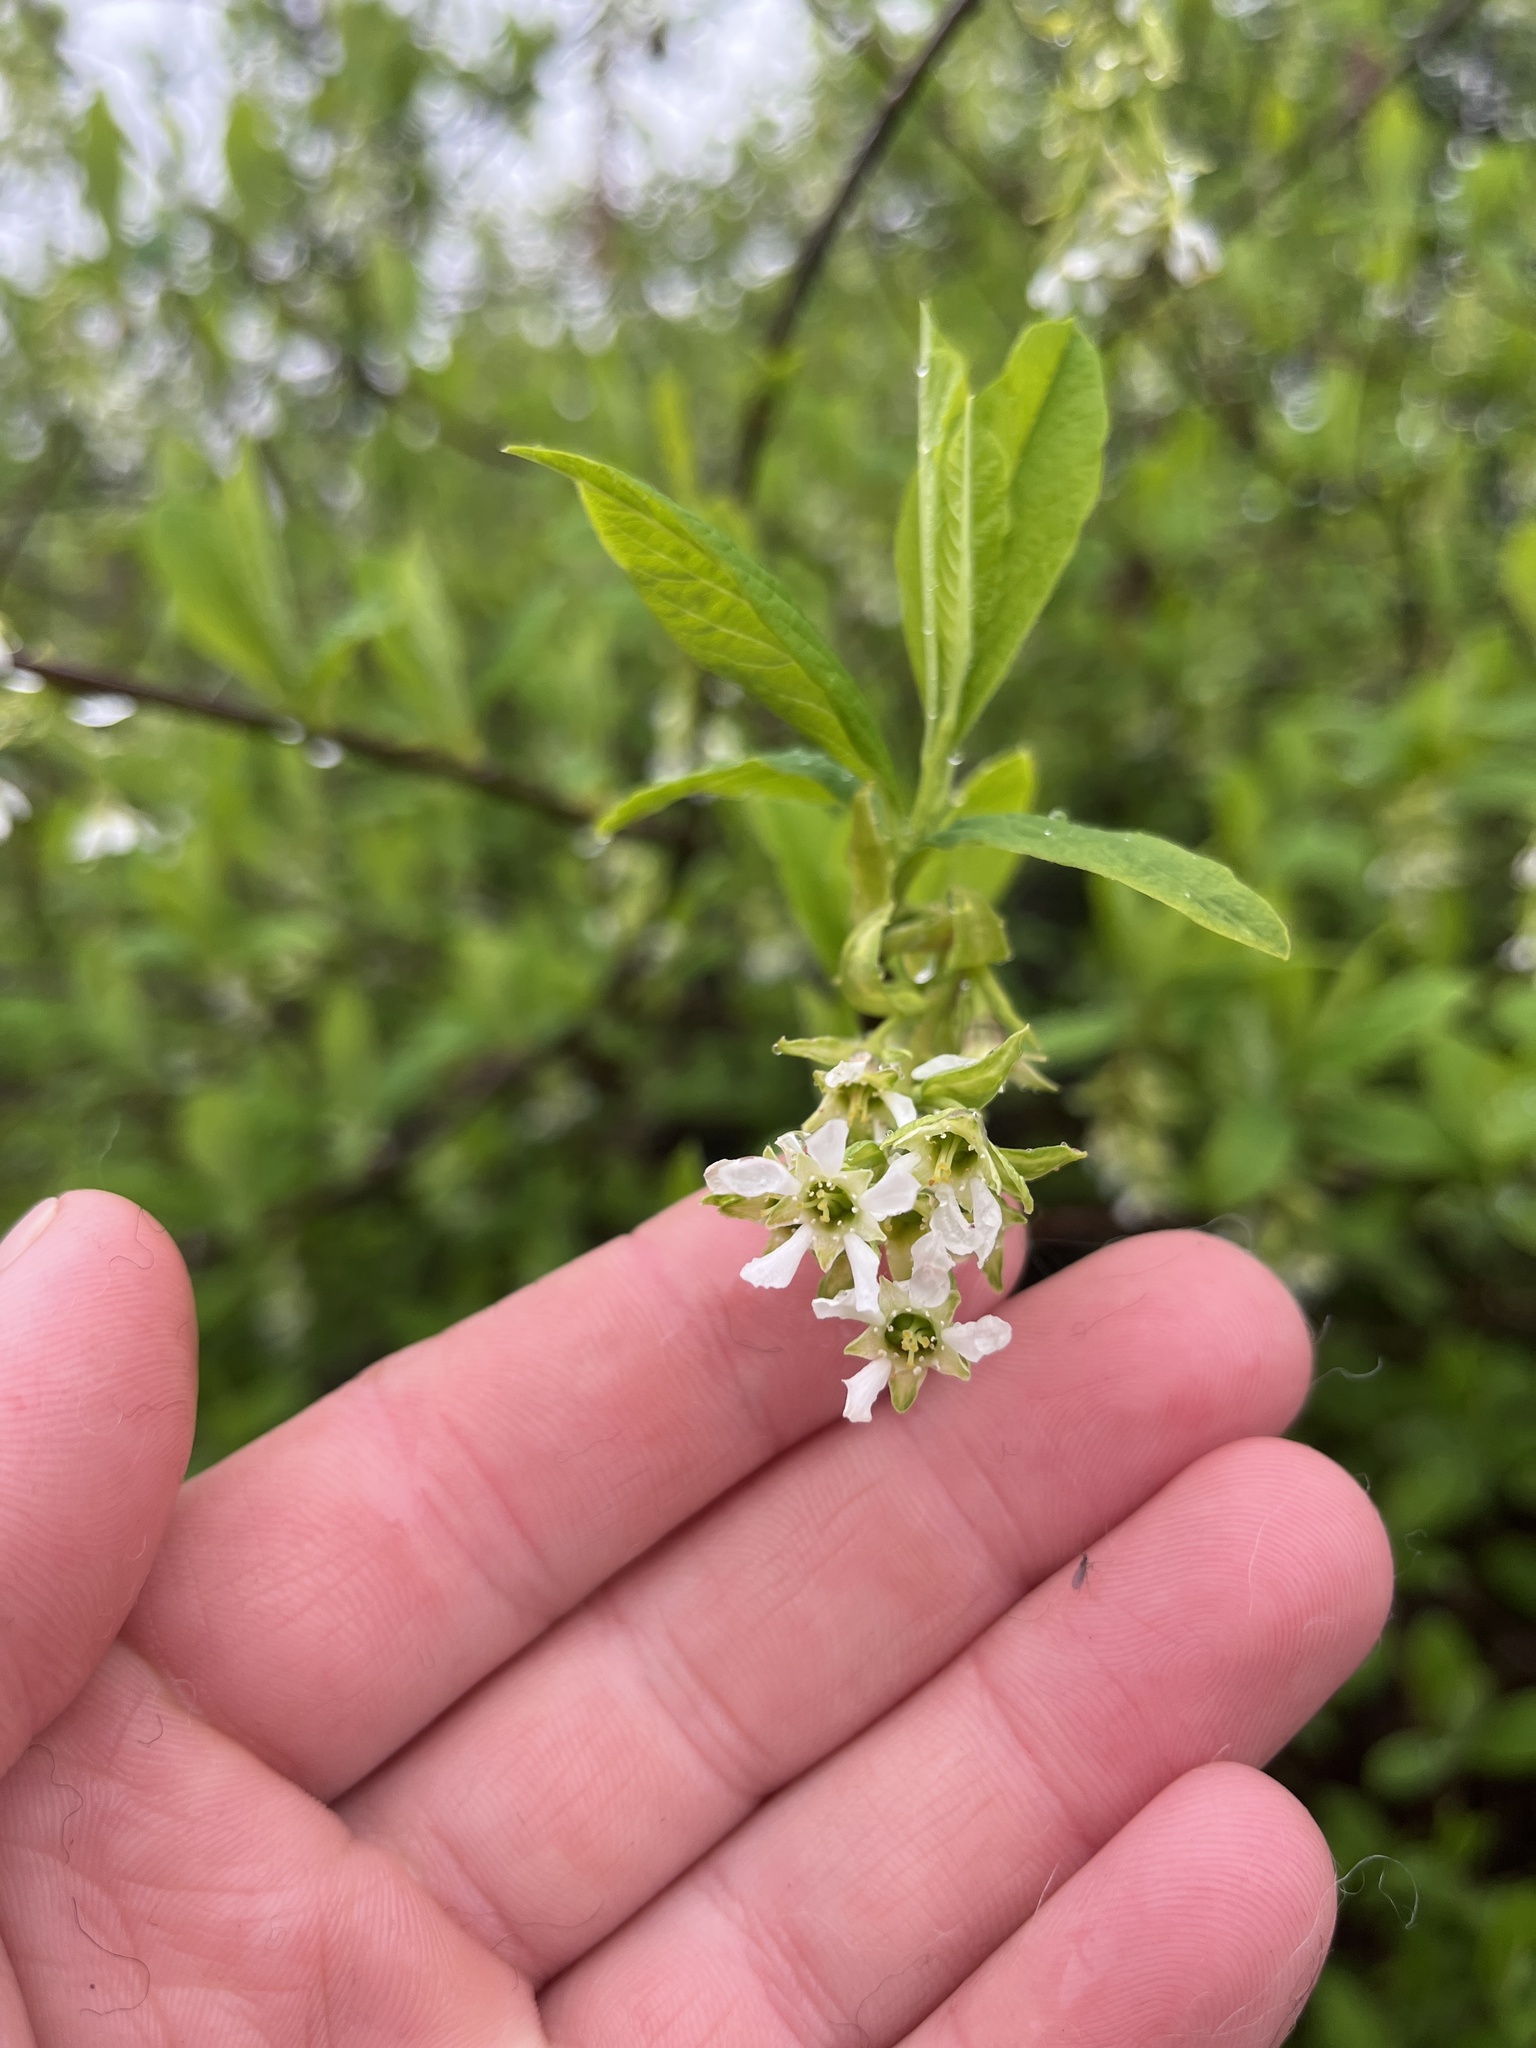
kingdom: Plantae
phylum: Tracheophyta
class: Magnoliopsida
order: Rosales
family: Rosaceae
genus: Oemleria
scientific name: Oemleria cerasiformis
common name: Osoberry
